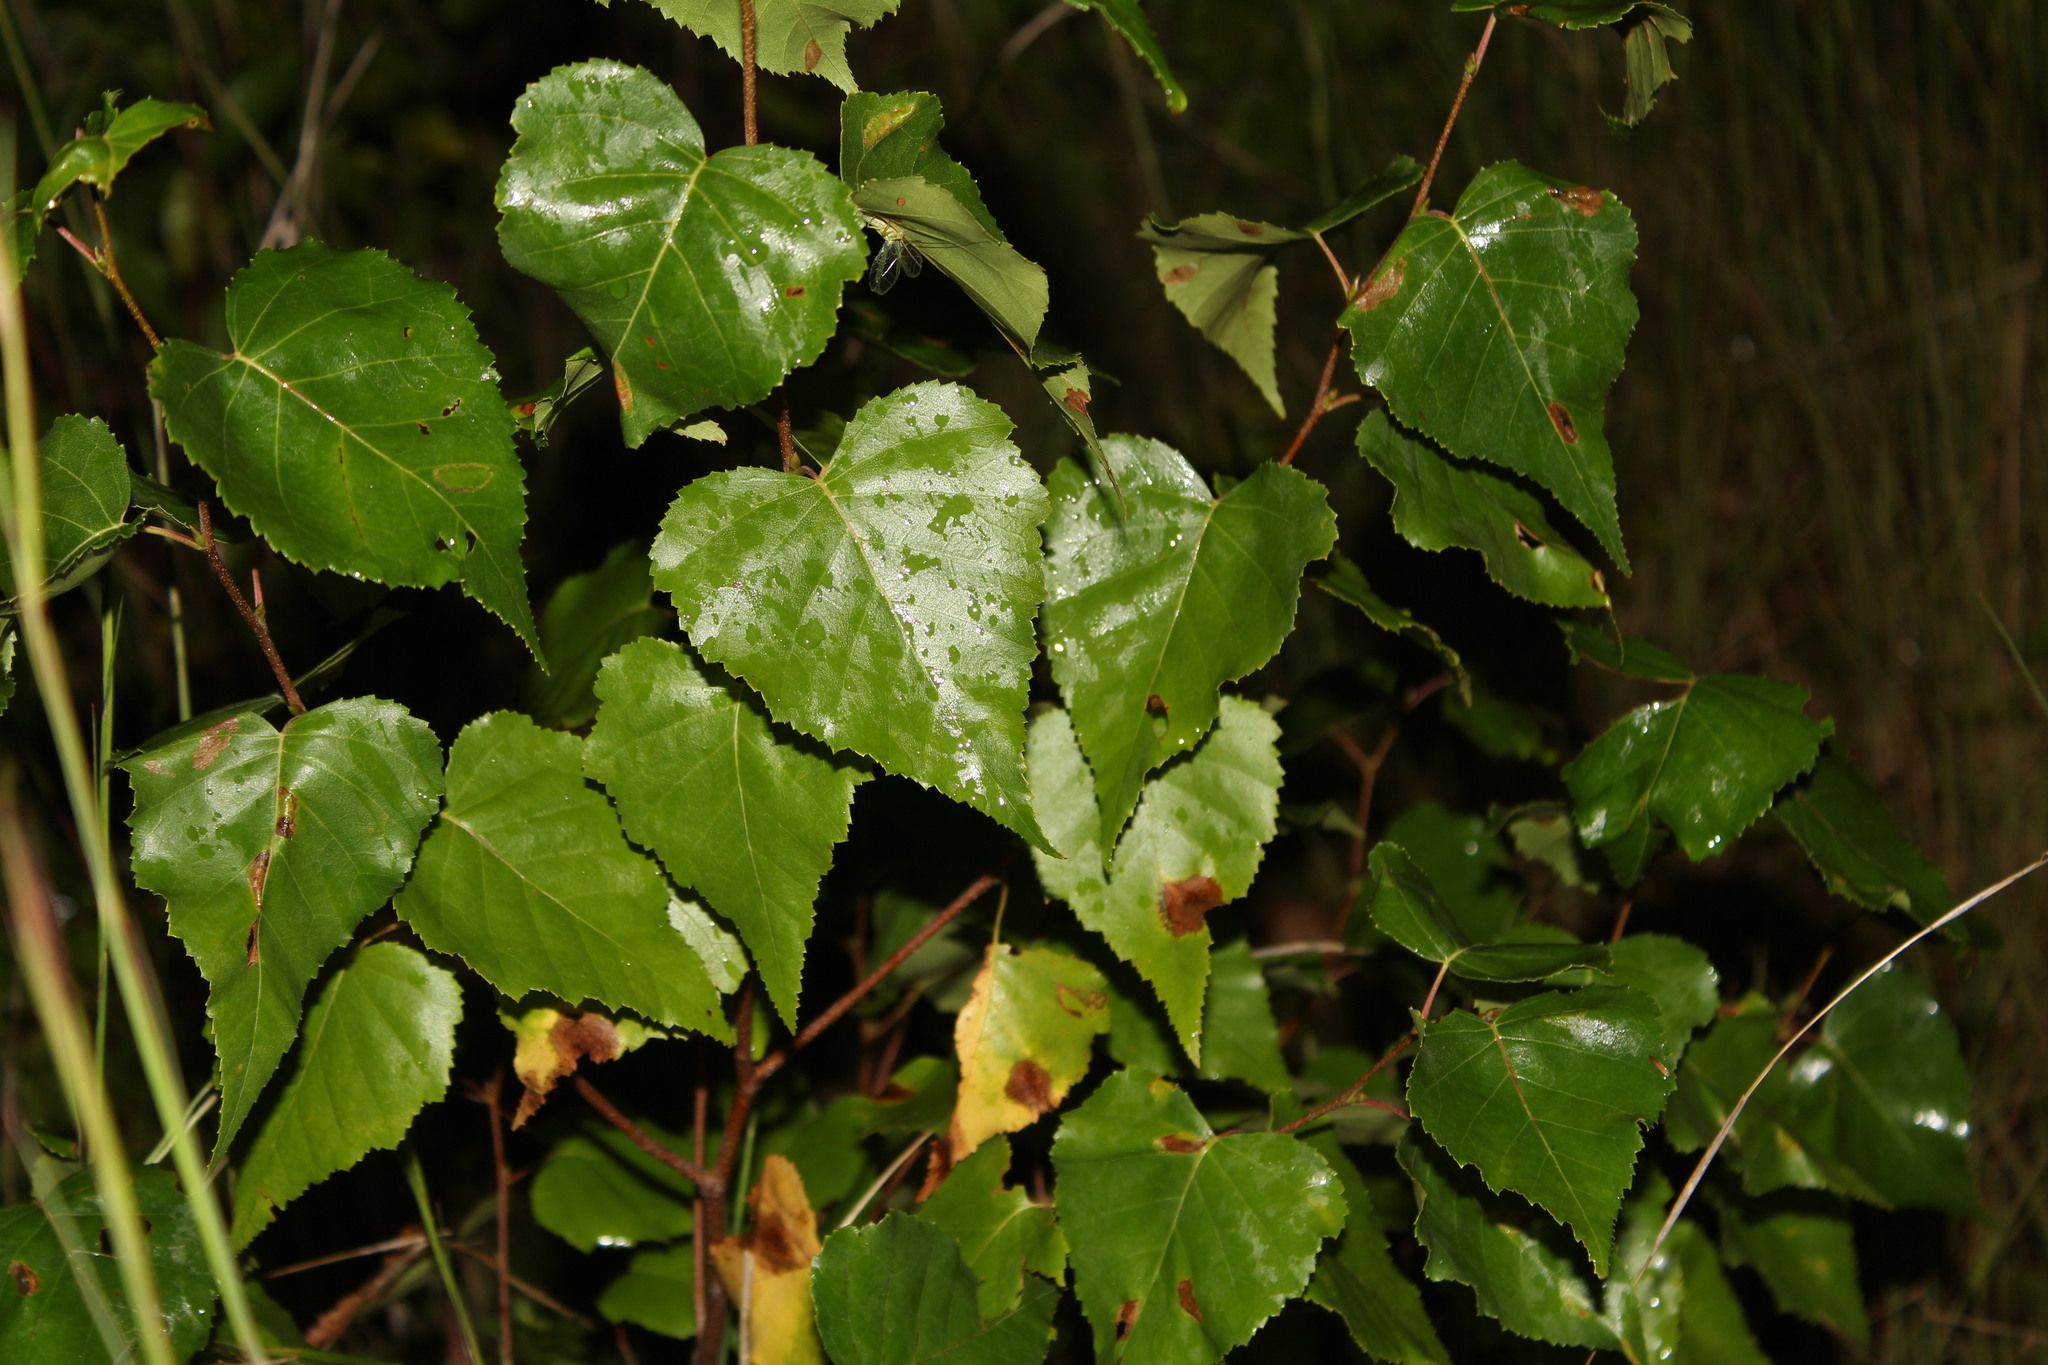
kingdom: Plantae
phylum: Tracheophyta
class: Magnoliopsida
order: Fagales
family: Betulaceae
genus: Betula
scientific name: Betula populifolia
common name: Fire birch
